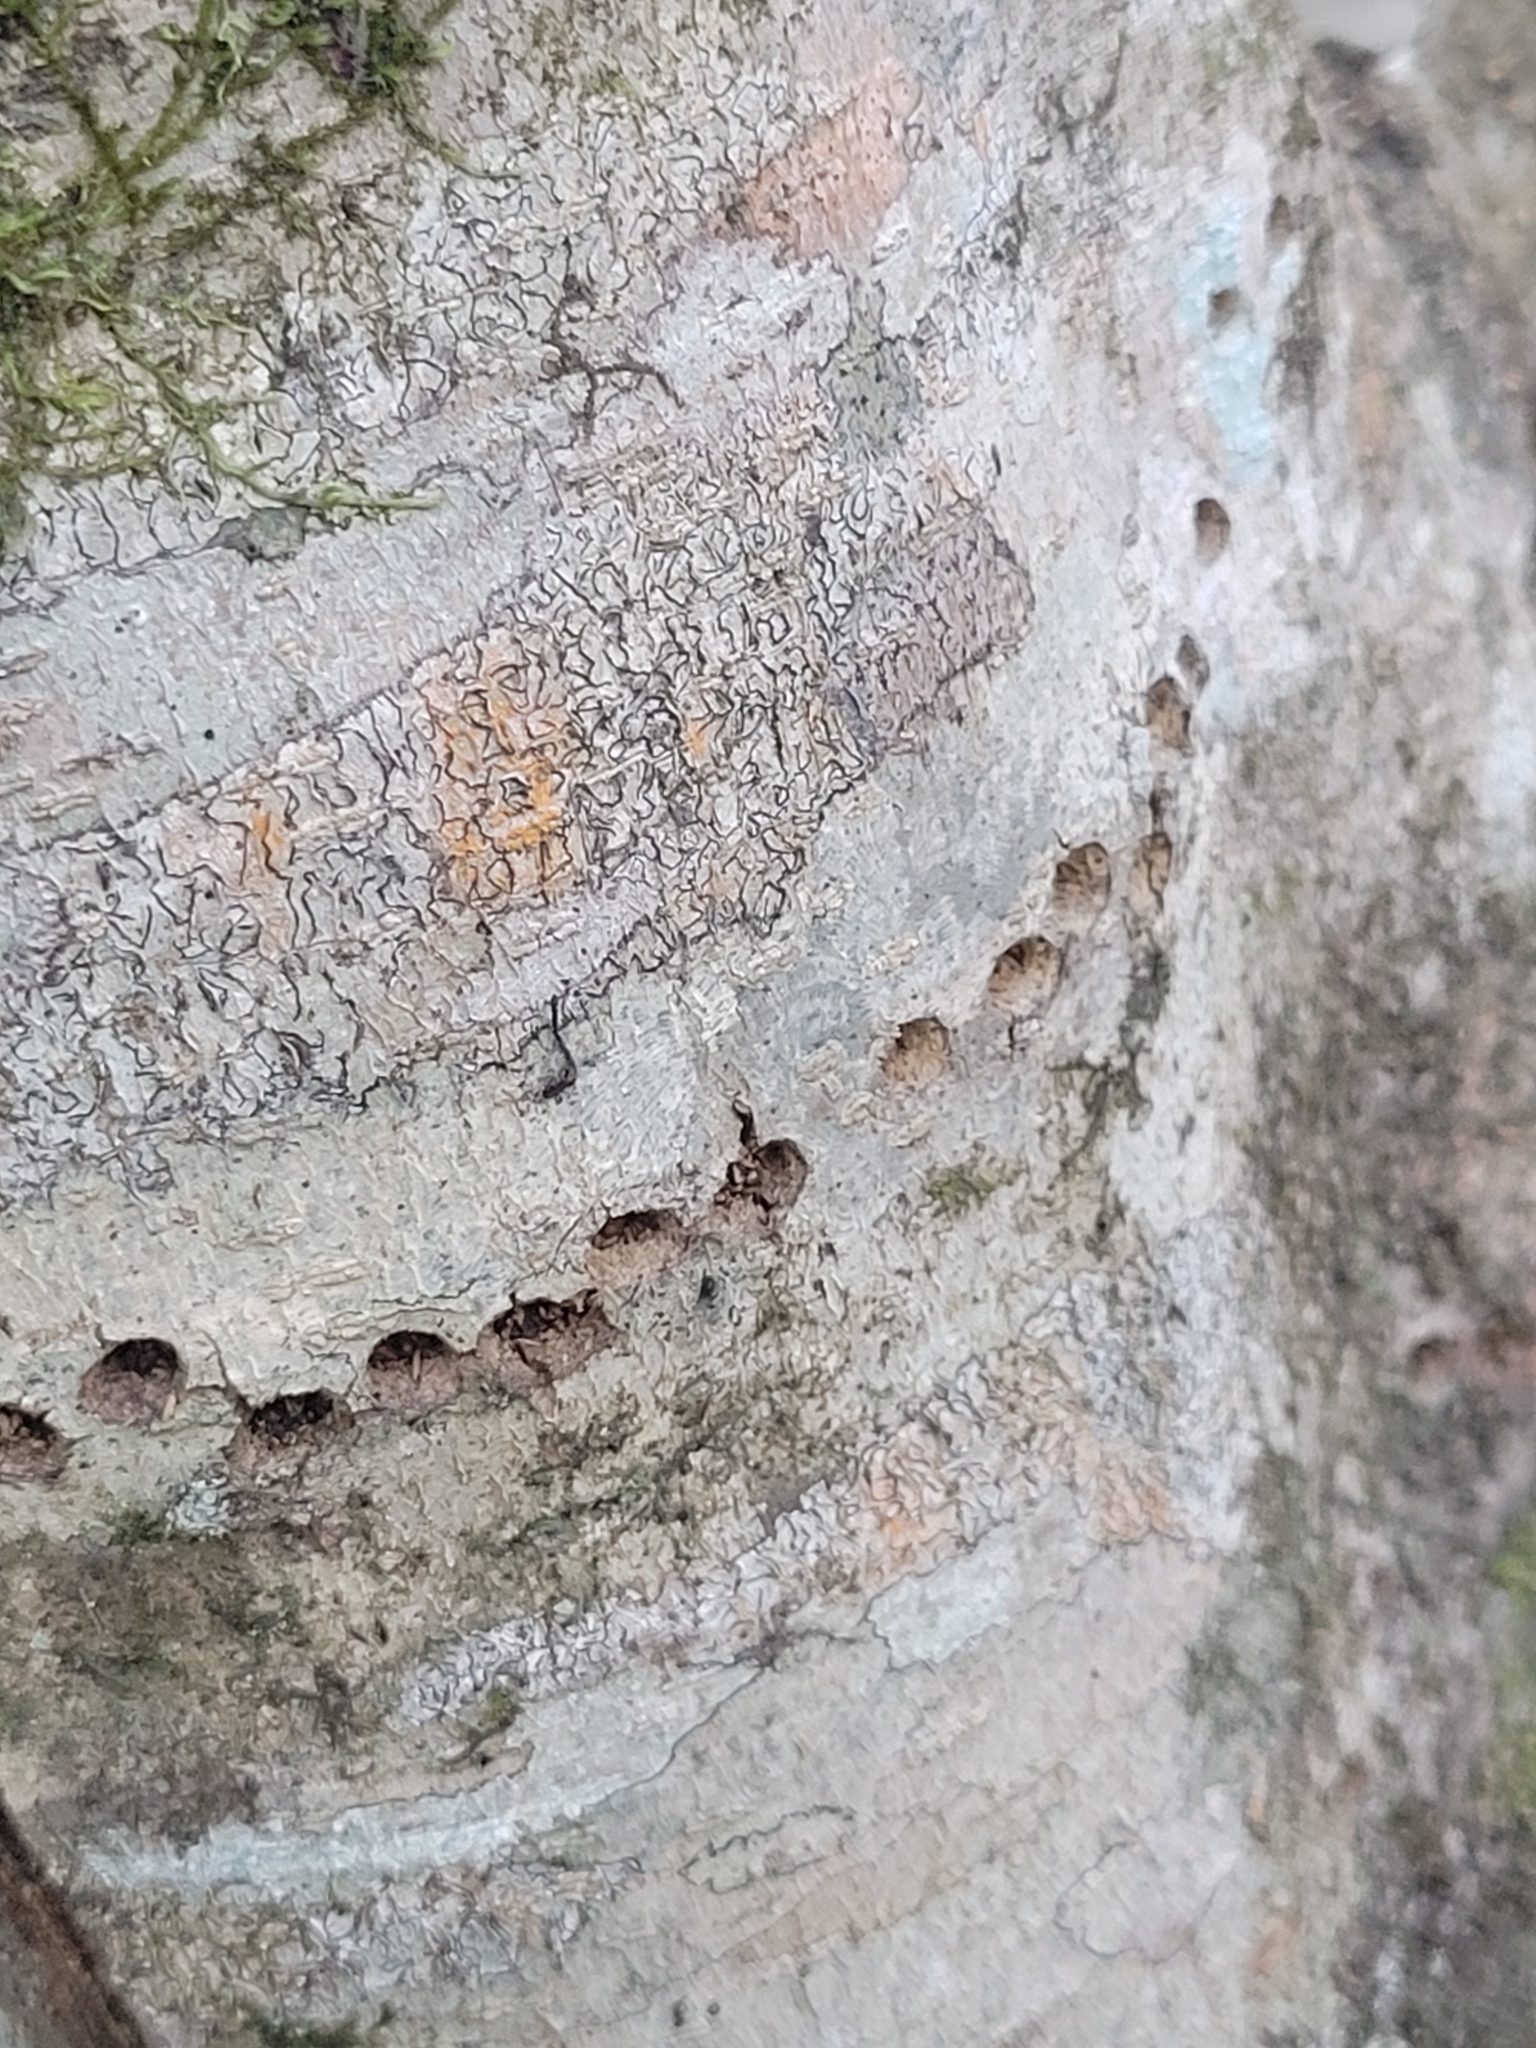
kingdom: Animalia
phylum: Chordata
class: Aves
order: Piciformes
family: Picidae
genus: Sphyrapicus
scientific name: Sphyrapicus varius
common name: Yellow-bellied sapsucker
